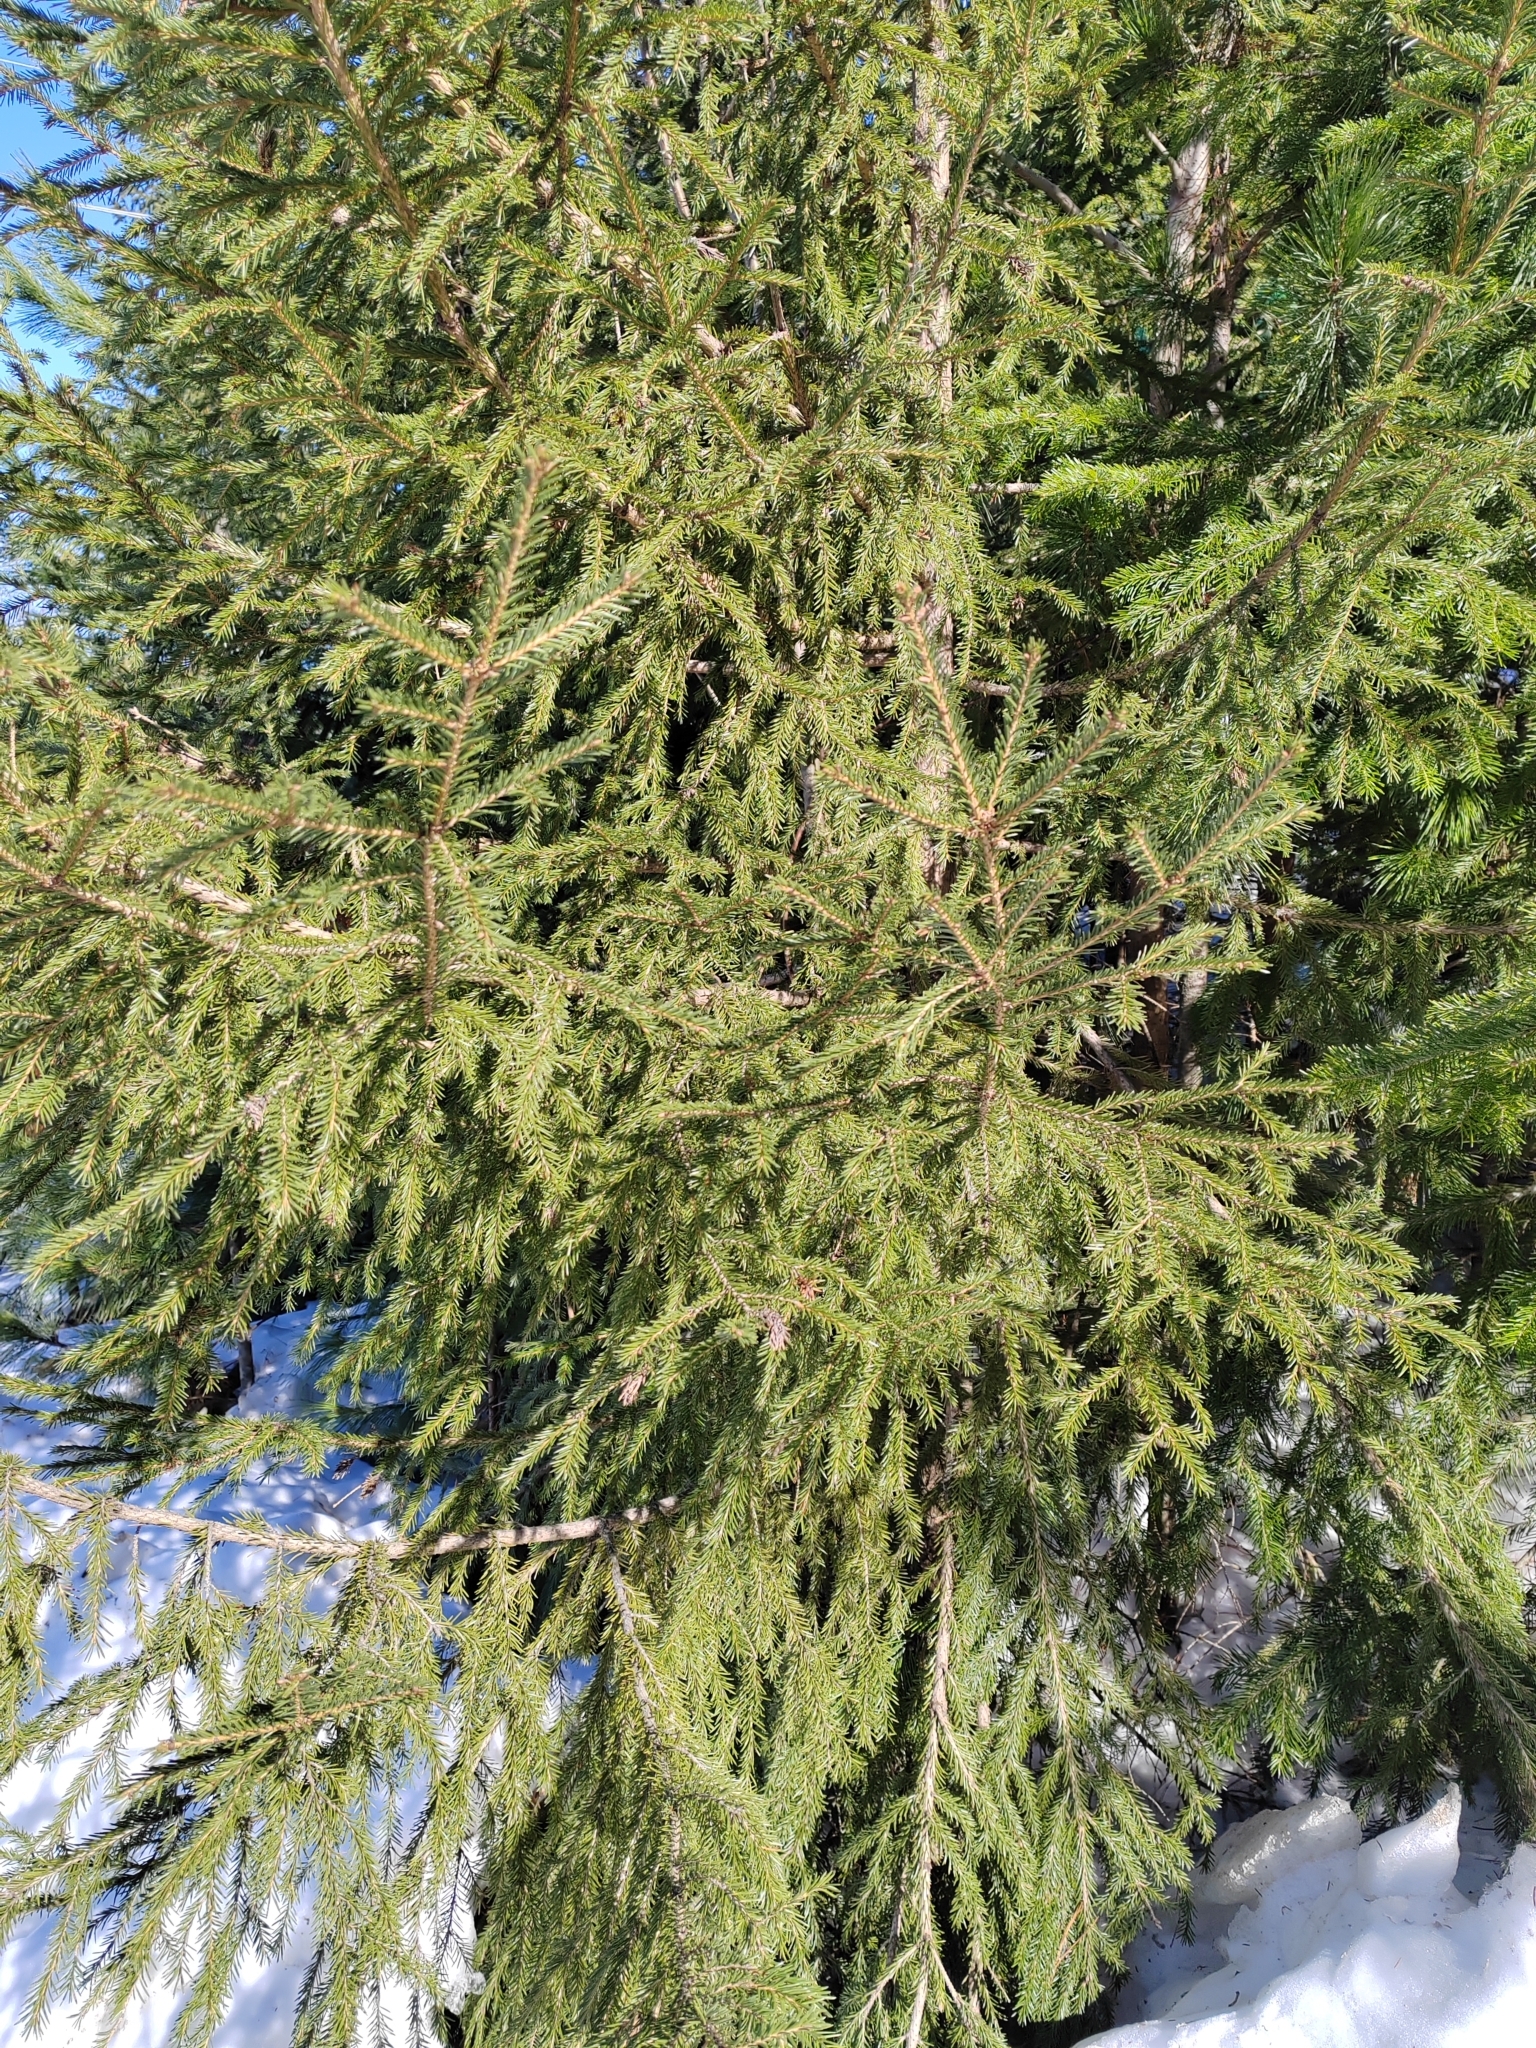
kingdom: Plantae
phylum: Tracheophyta
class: Pinopsida
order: Pinales
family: Pinaceae
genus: Picea
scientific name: Picea obovata
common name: Siberian spruce
